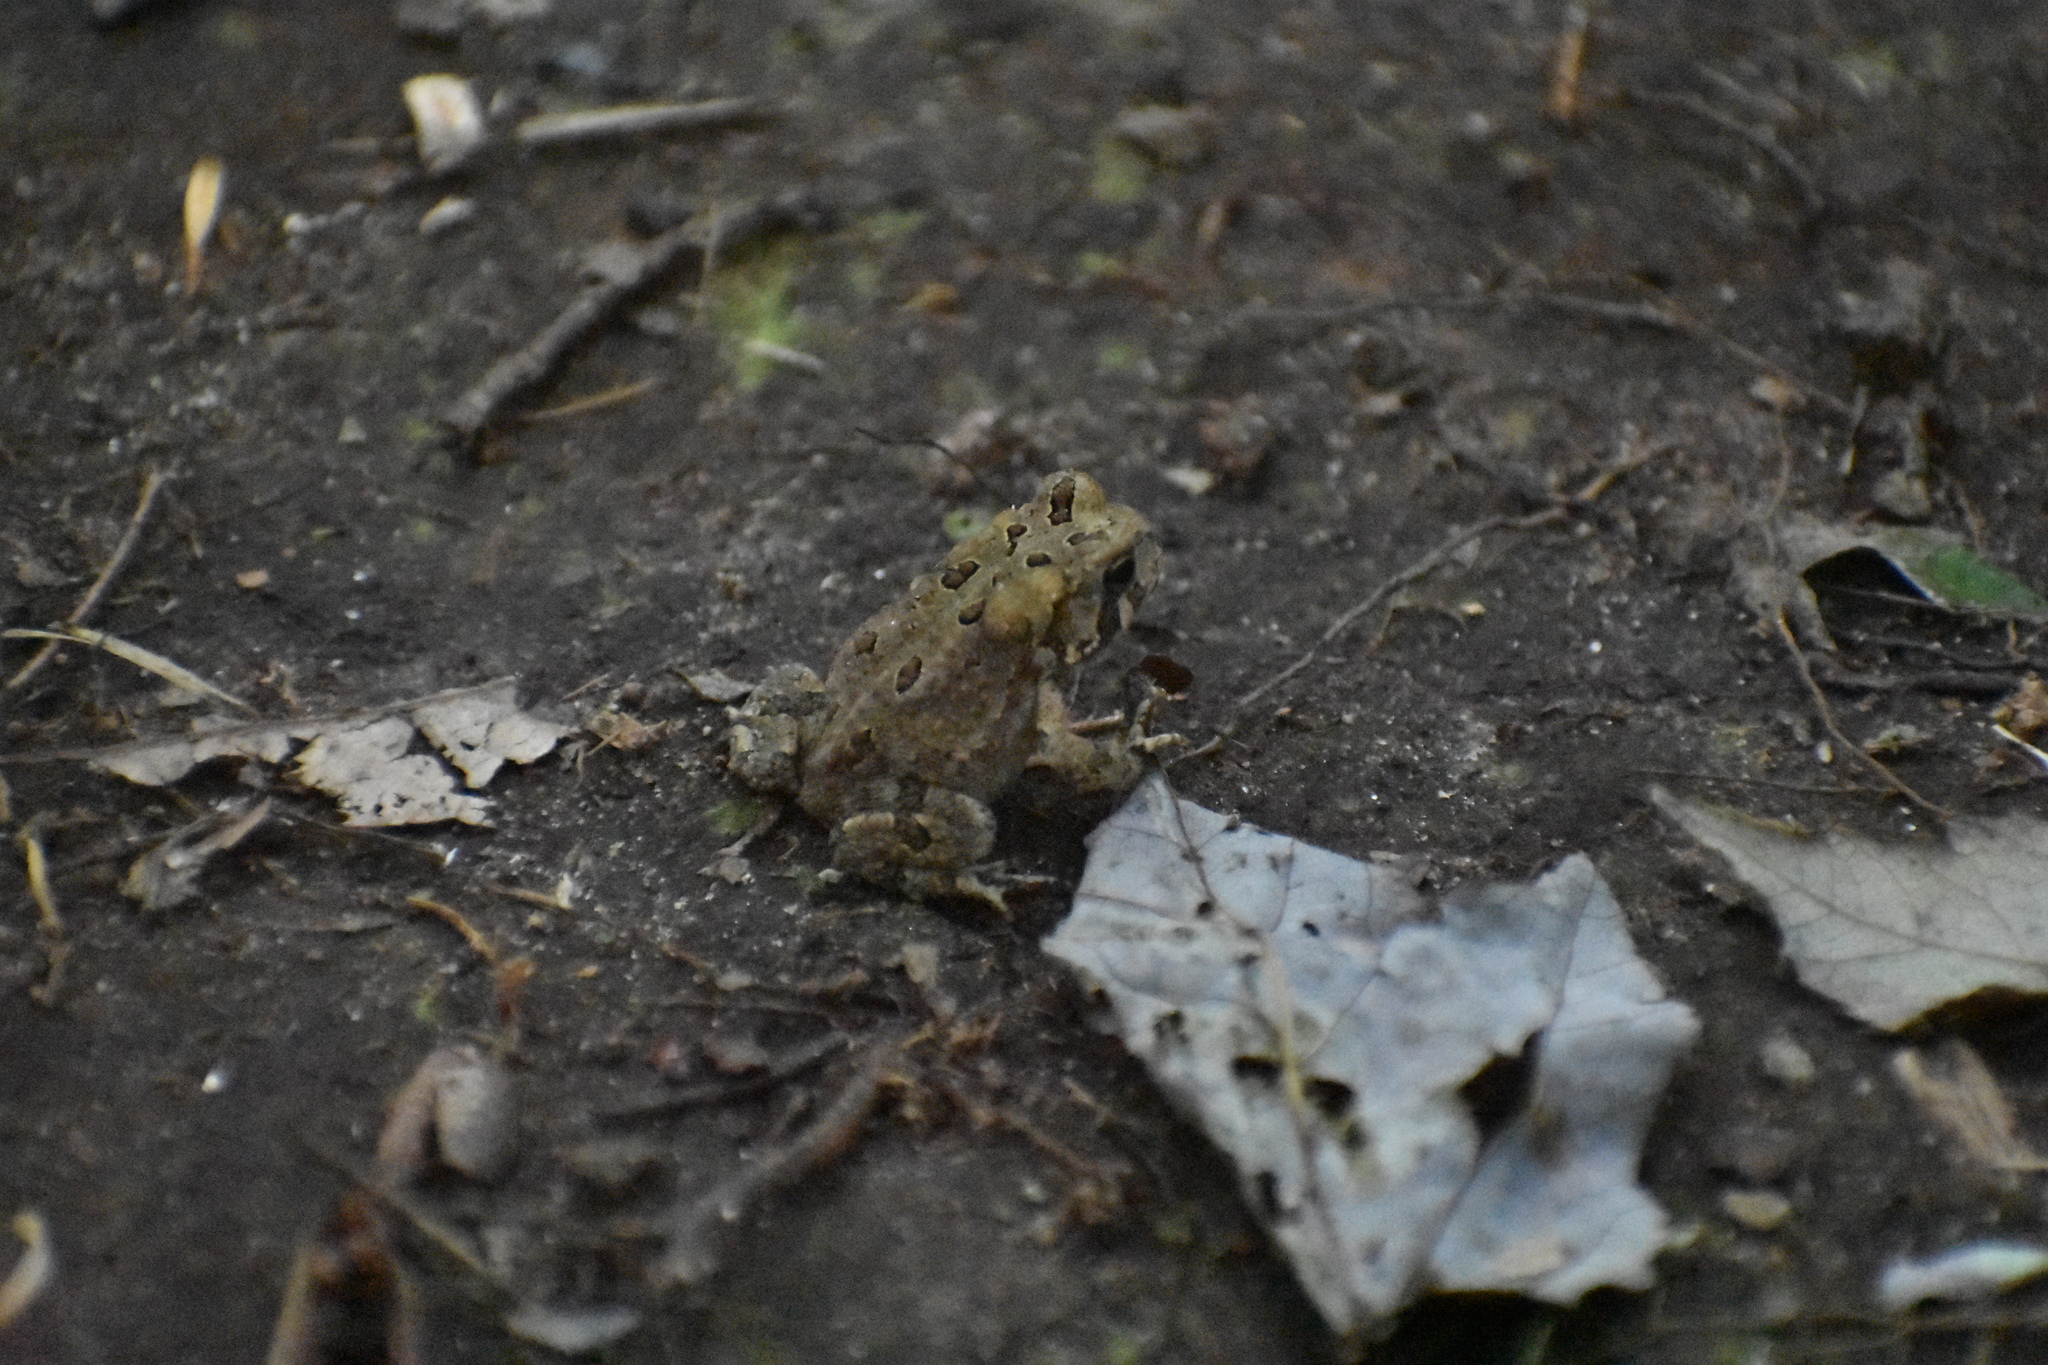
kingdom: Animalia
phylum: Chordata
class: Amphibia
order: Anura
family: Bufonidae
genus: Anaxyrus
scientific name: Anaxyrus americanus
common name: American toad
